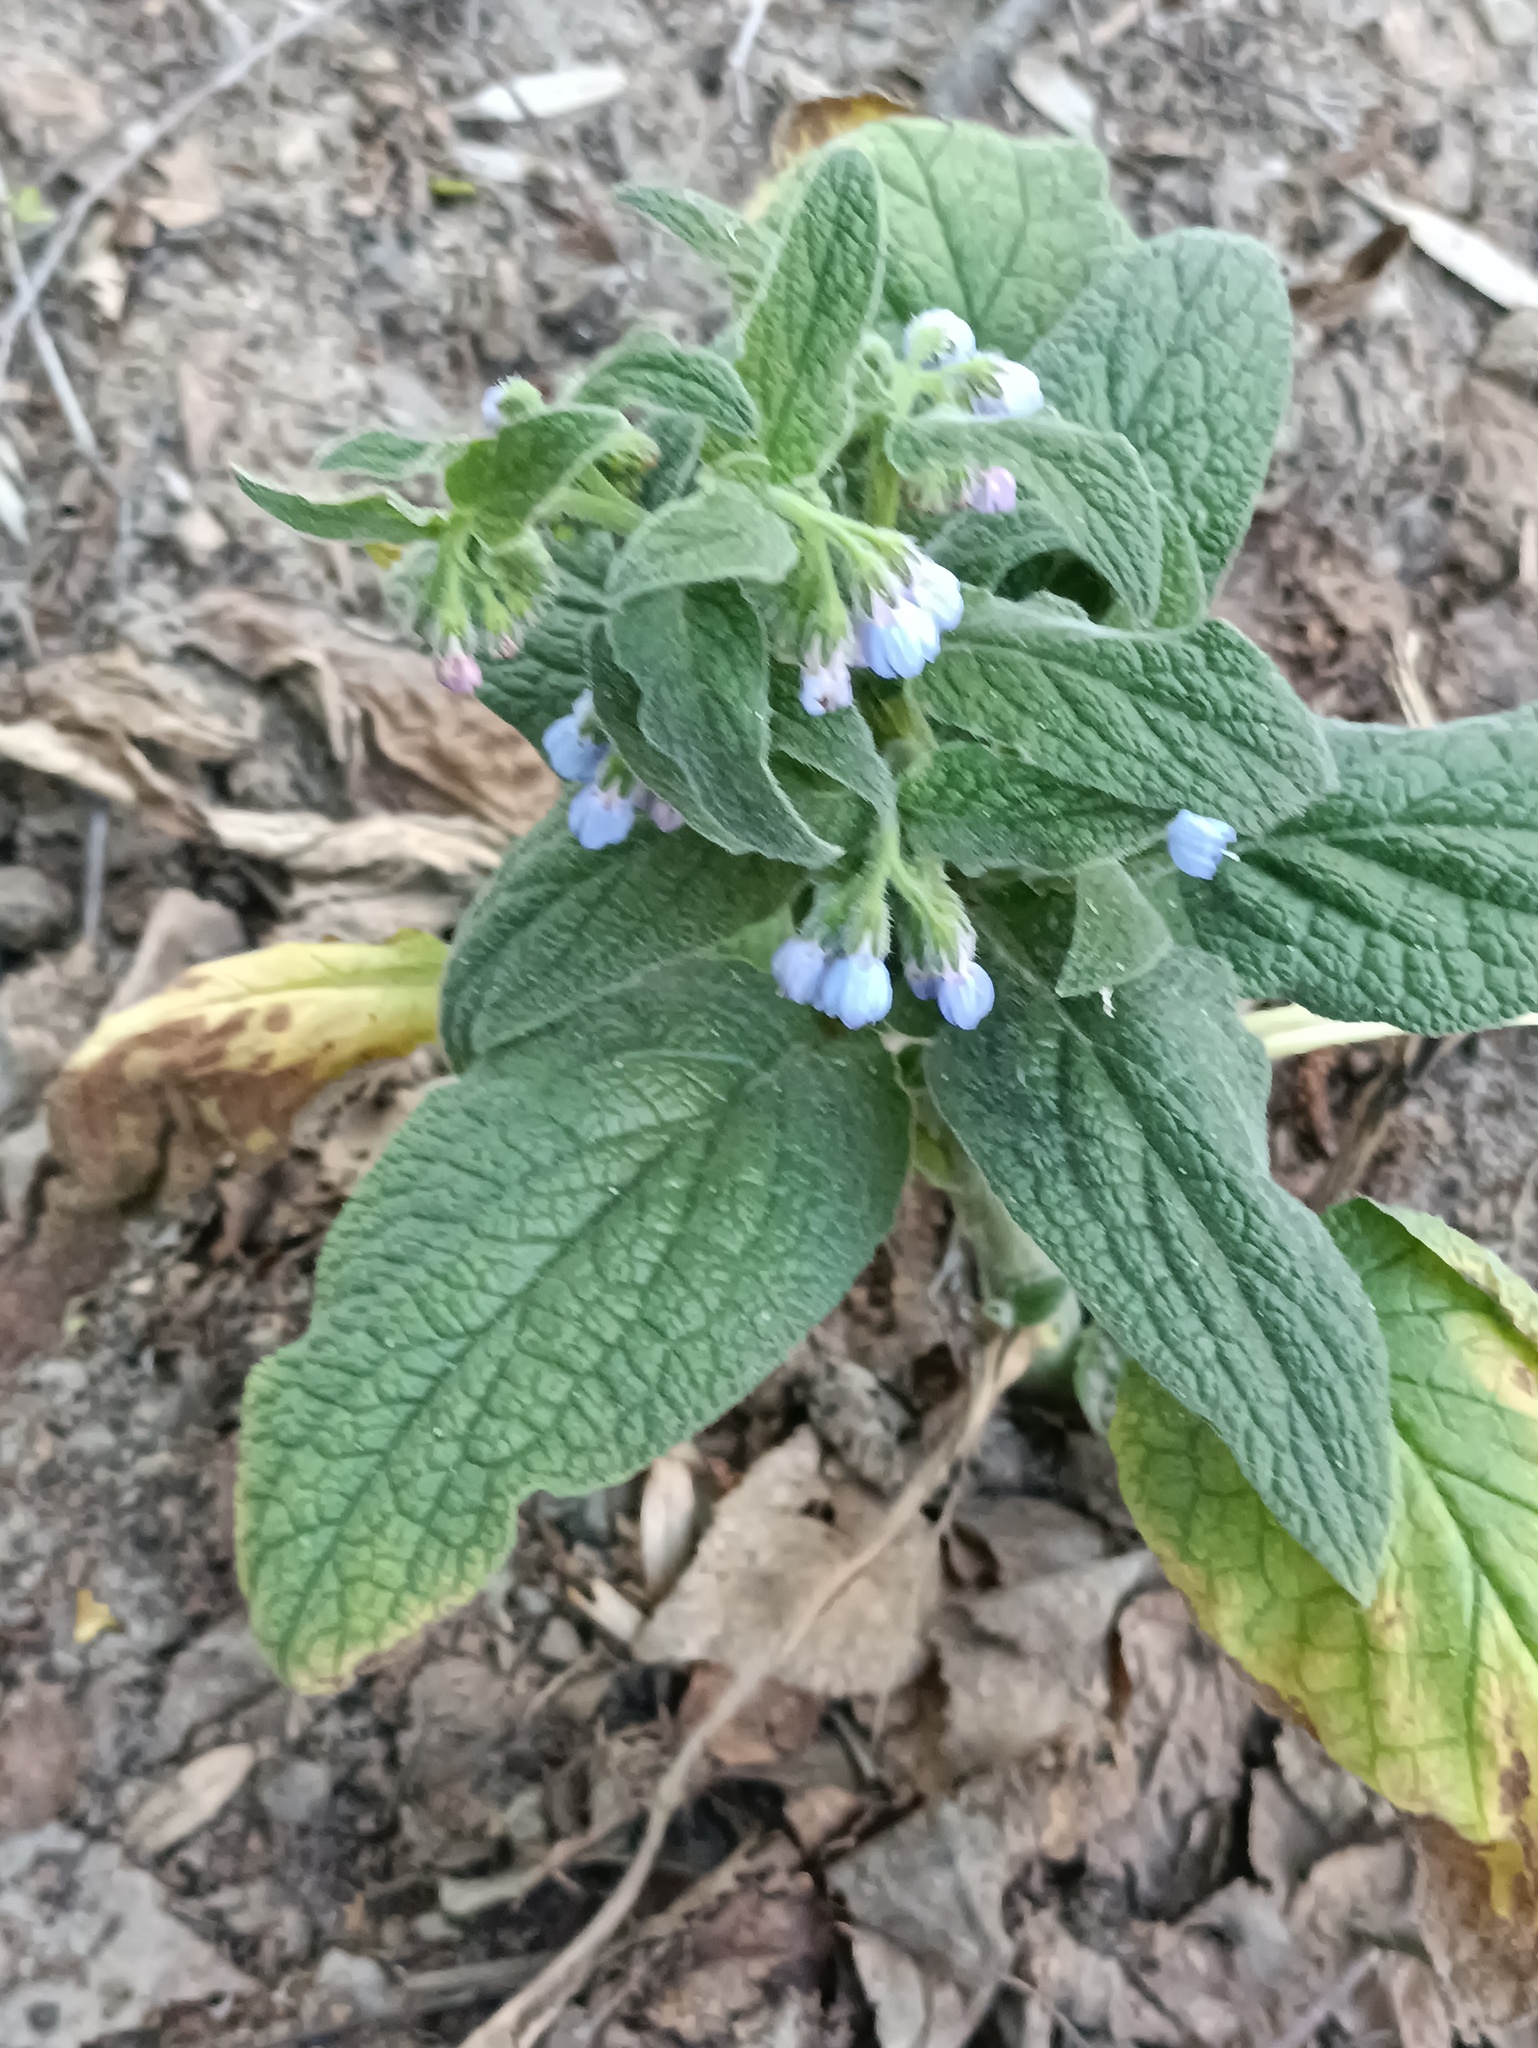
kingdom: Plantae
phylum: Tracheophyta
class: Magnoliopsida
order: Boraginales
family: Boraginaceae
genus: Symphytum
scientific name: Symphytum caucasicum
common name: Caucasian comfrey
